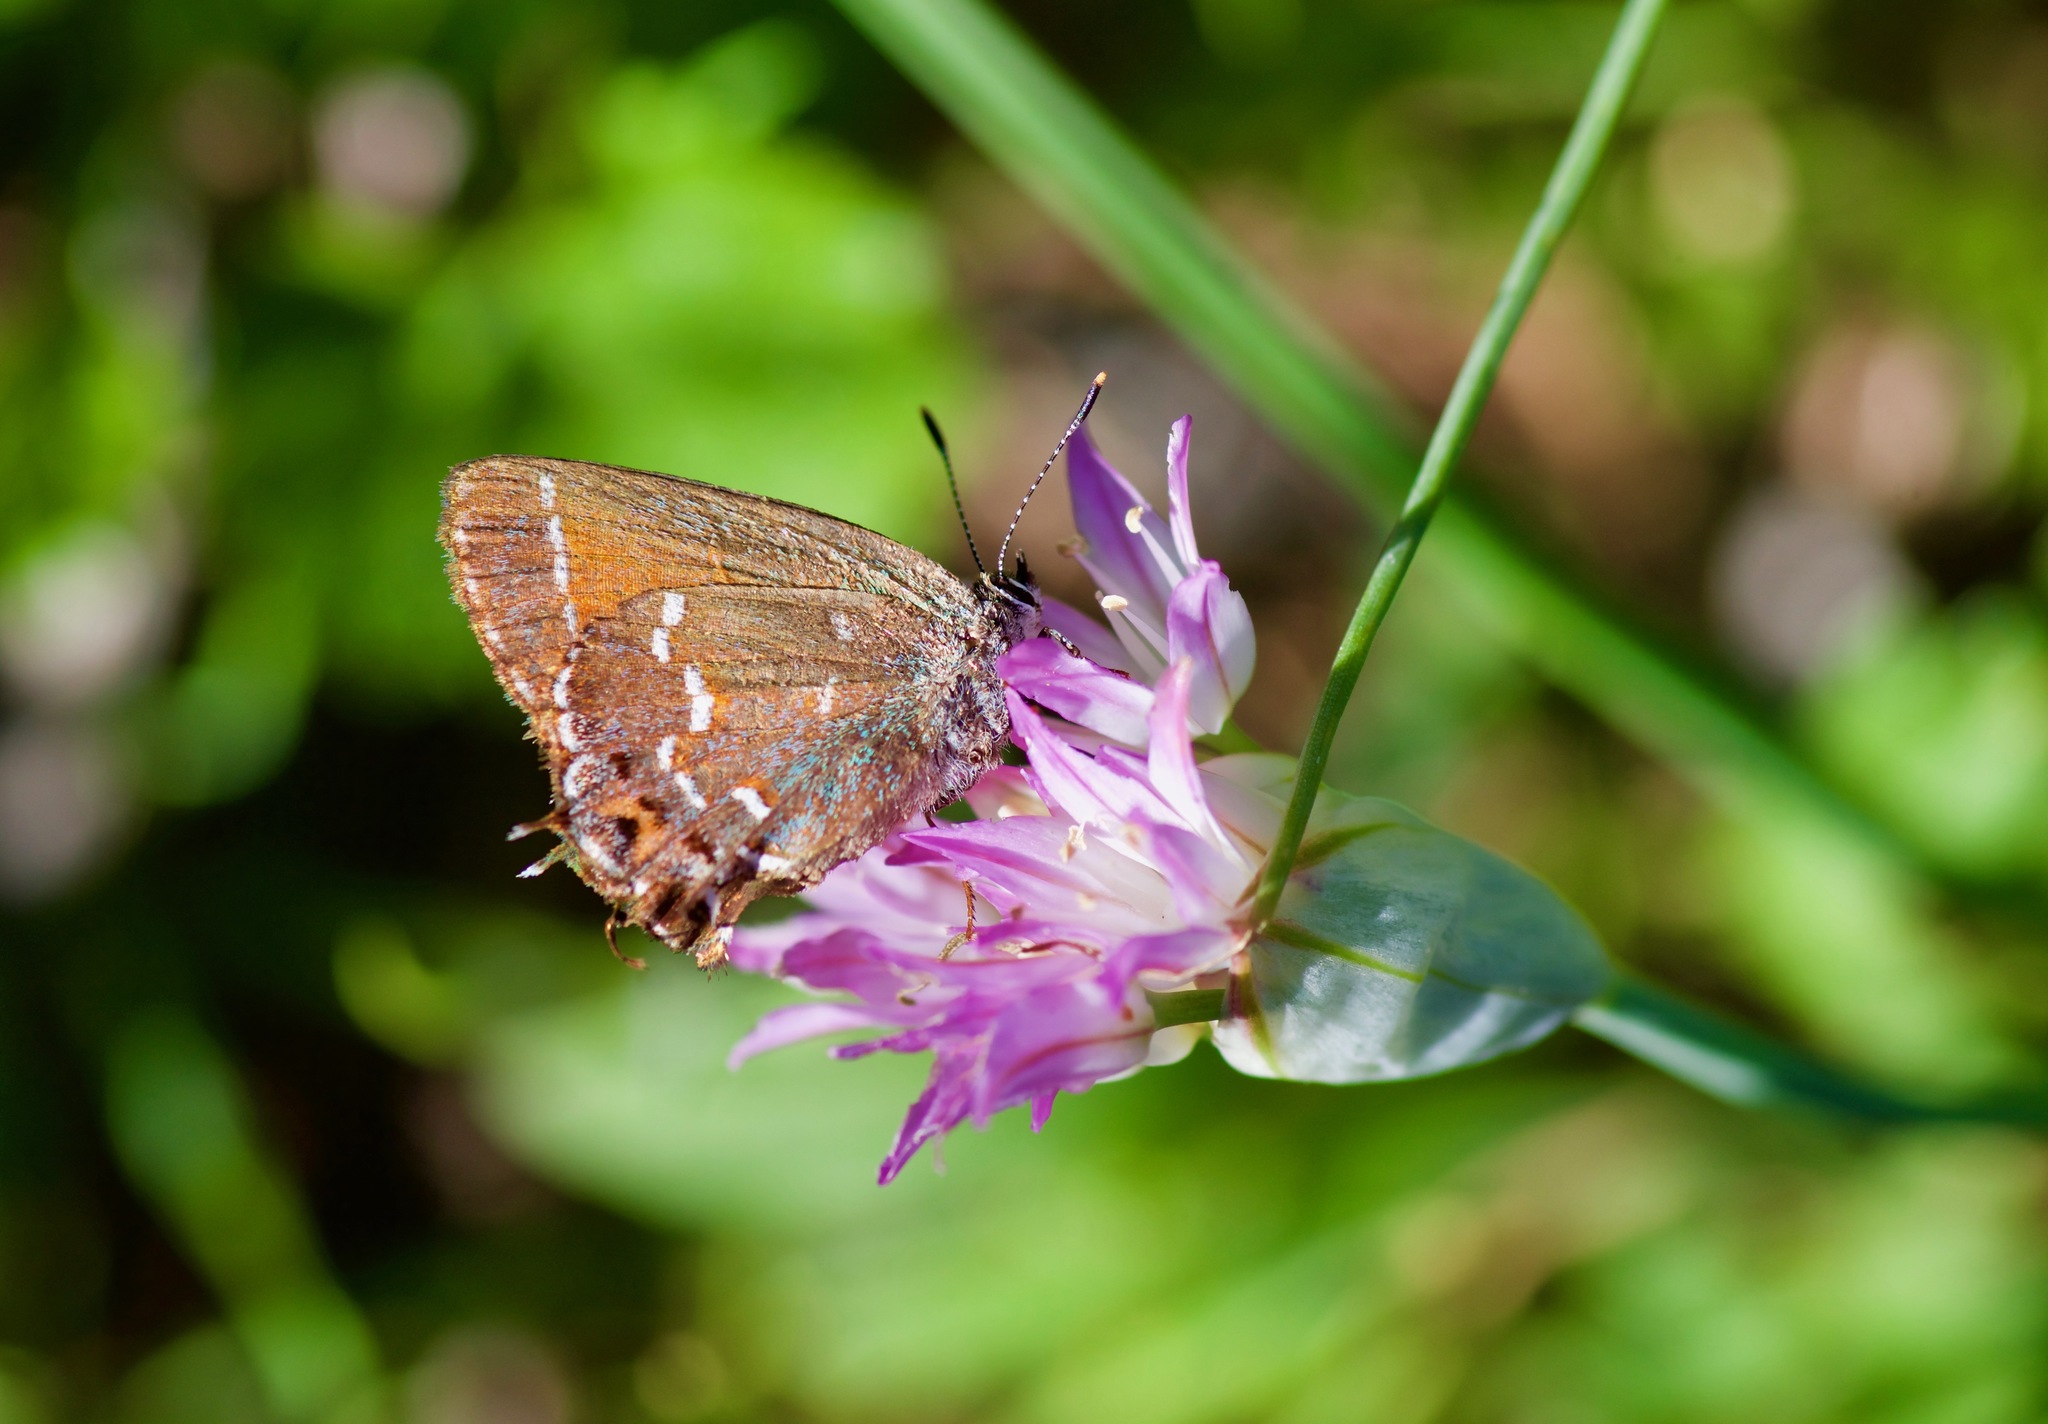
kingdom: Animalia
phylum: Arthropoda
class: Insecta
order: Lepidoptera
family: Lycaenidae
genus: Mitoura
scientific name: Mitoura gryneus
